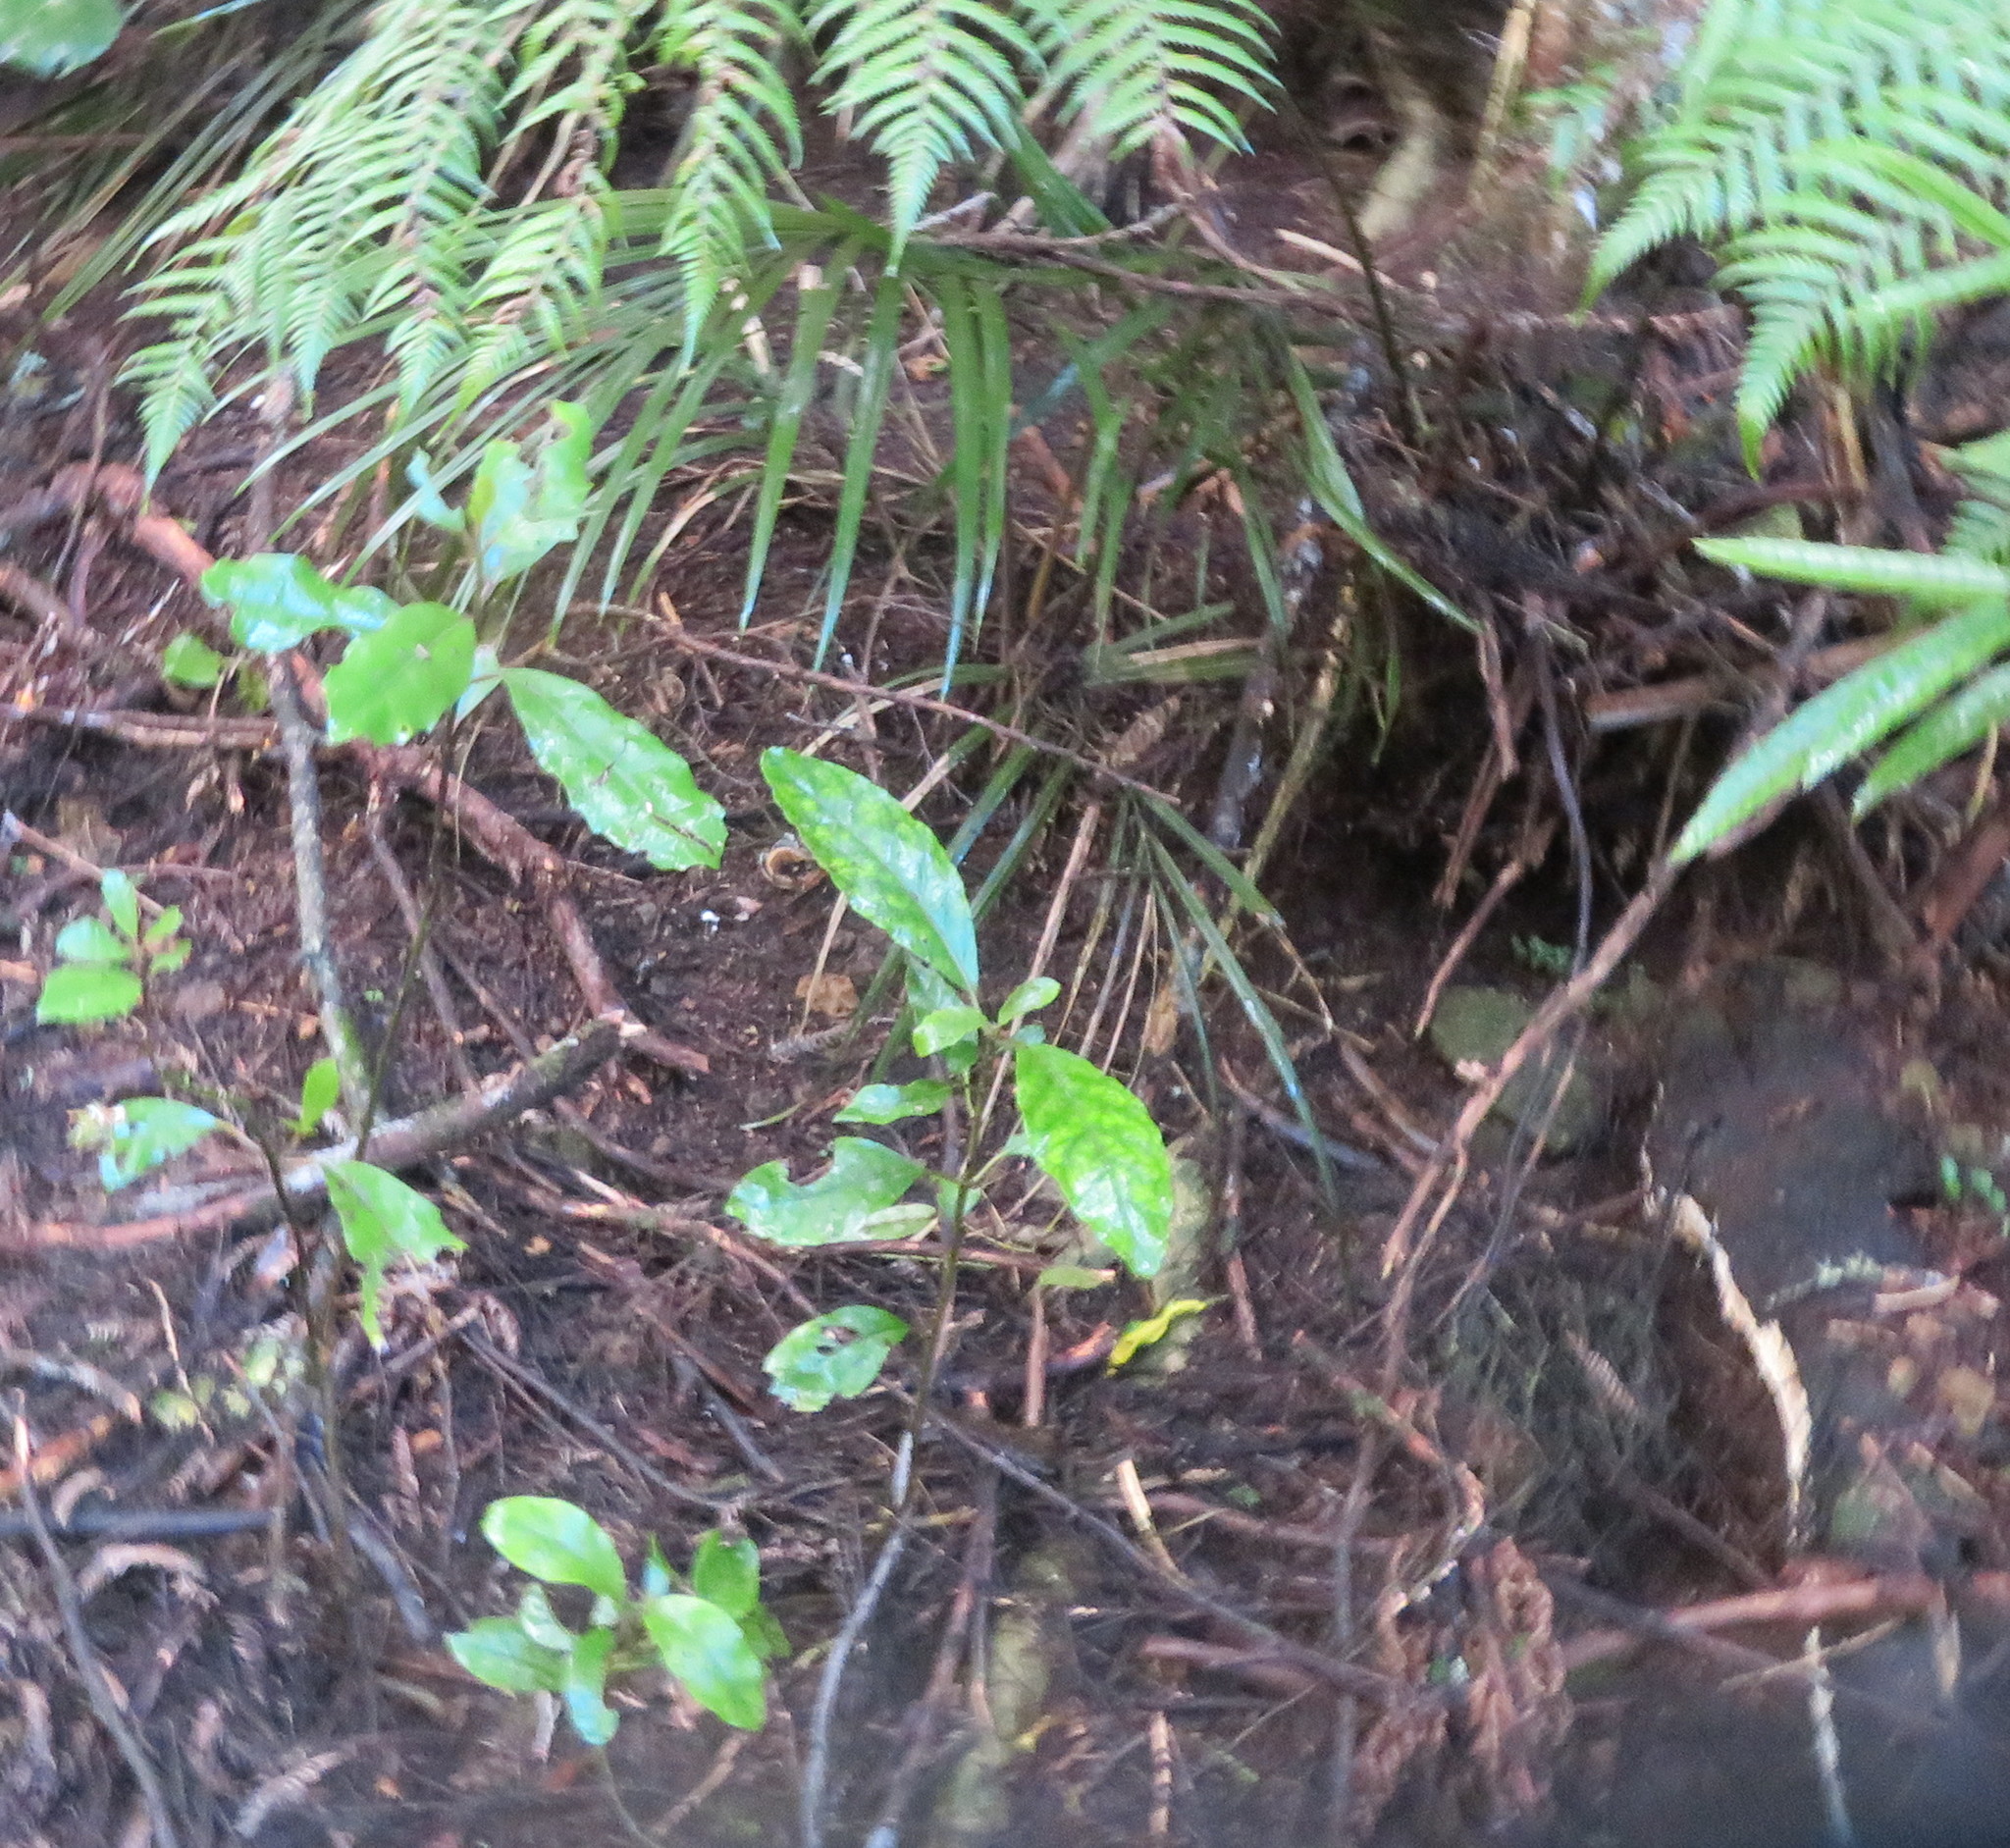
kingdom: Plantae
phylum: Tracheophyta
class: Magnoliopsida
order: Gentianales
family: Rubiaceae
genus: Coprosma
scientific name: Coprosma autumnalis
